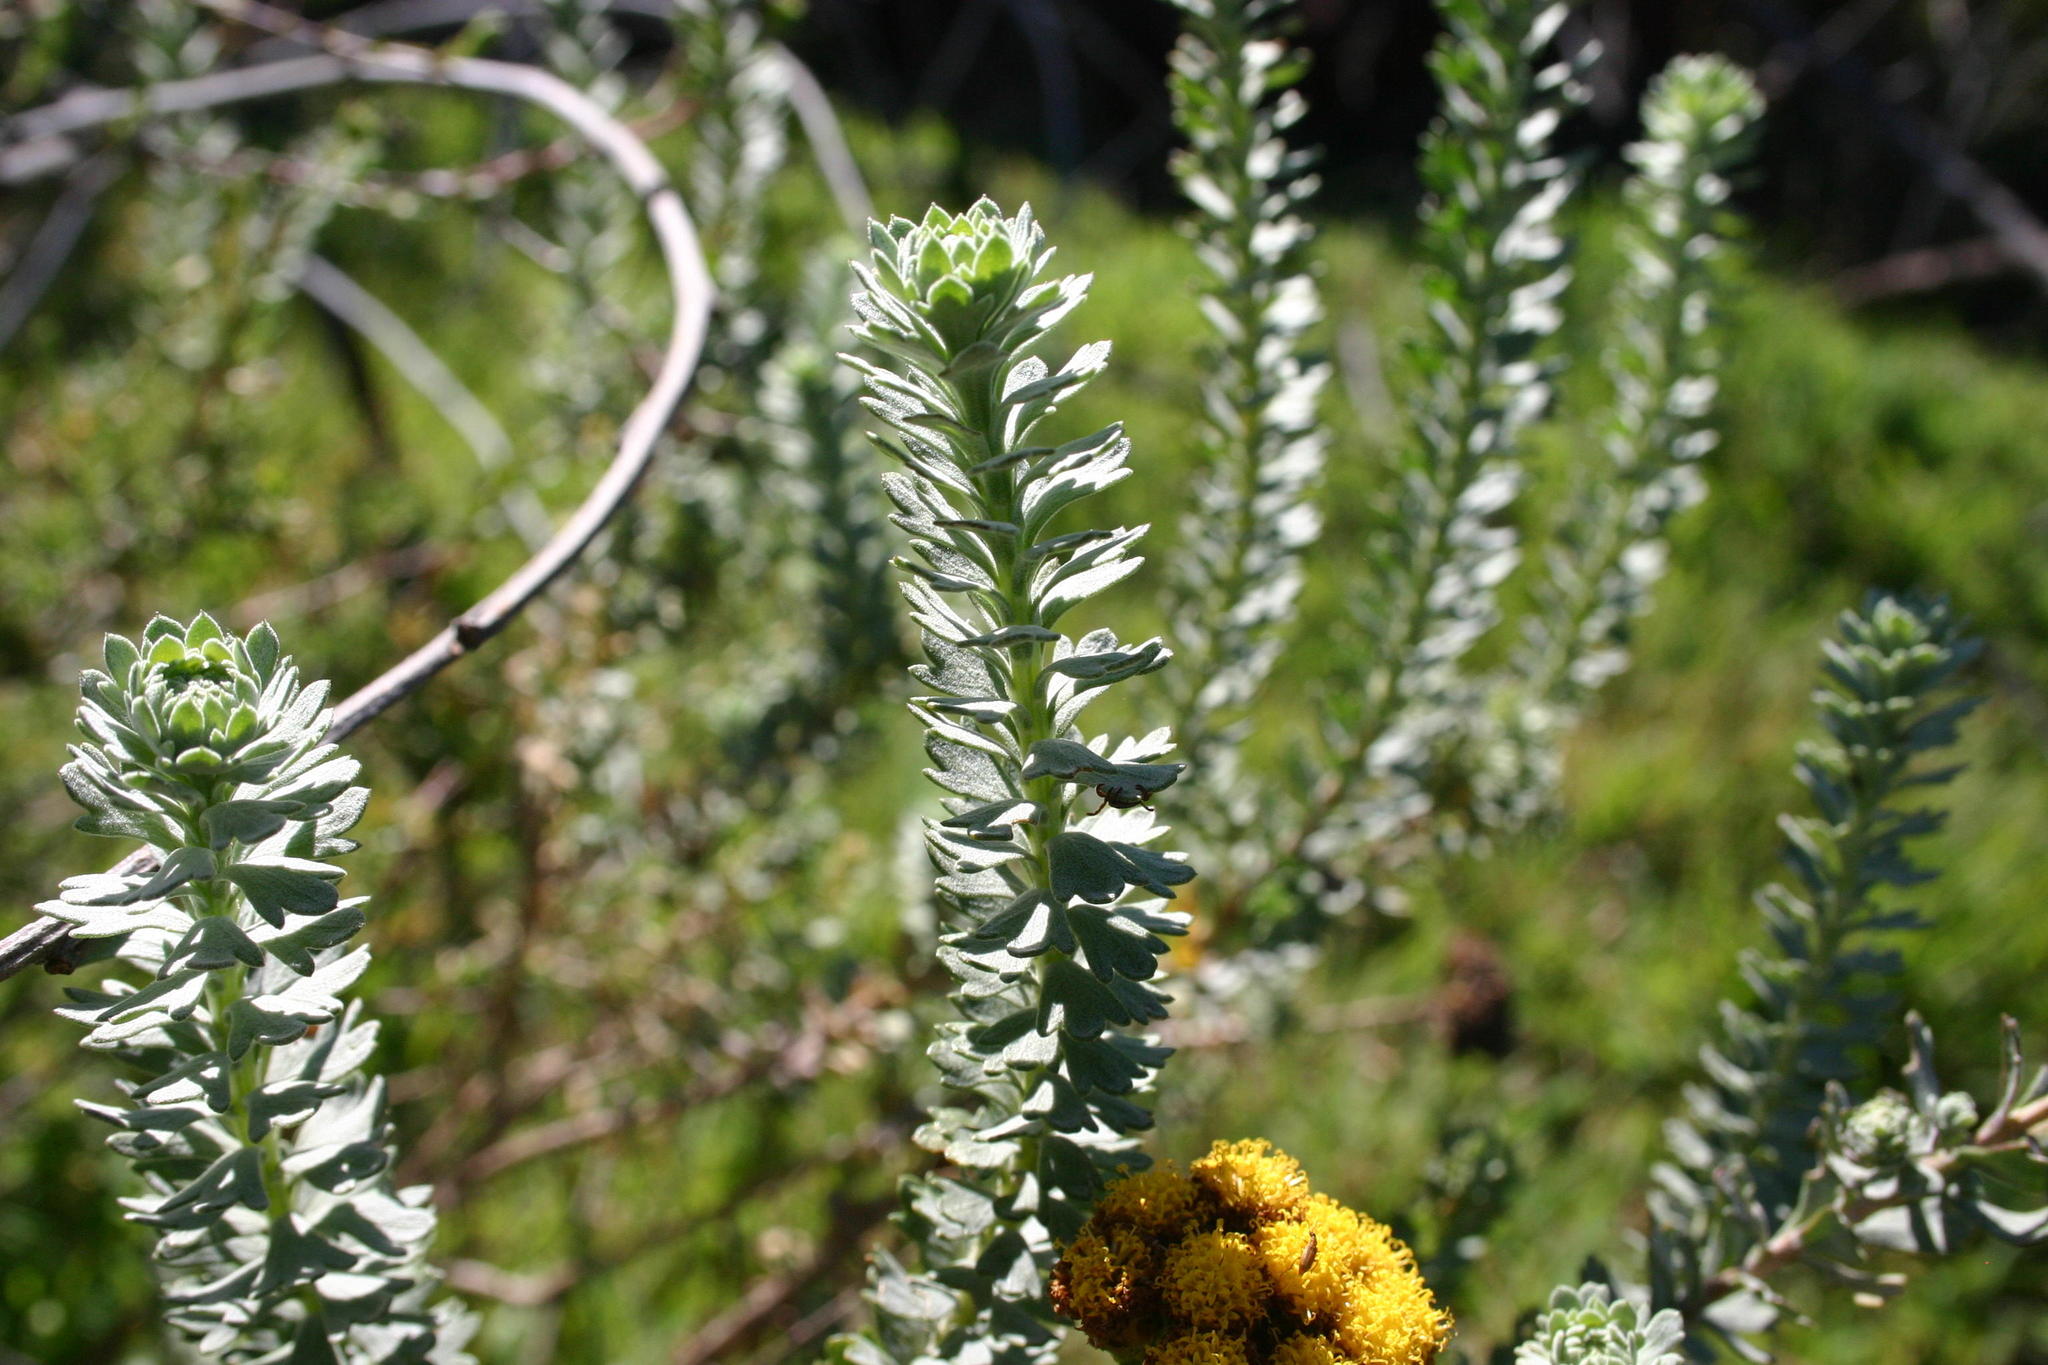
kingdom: Plantae
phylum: Tracheophyta
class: Magnoliopsida
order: Asterales
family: Asteraceae
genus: Athanasia
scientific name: Athanasia trifurcata
